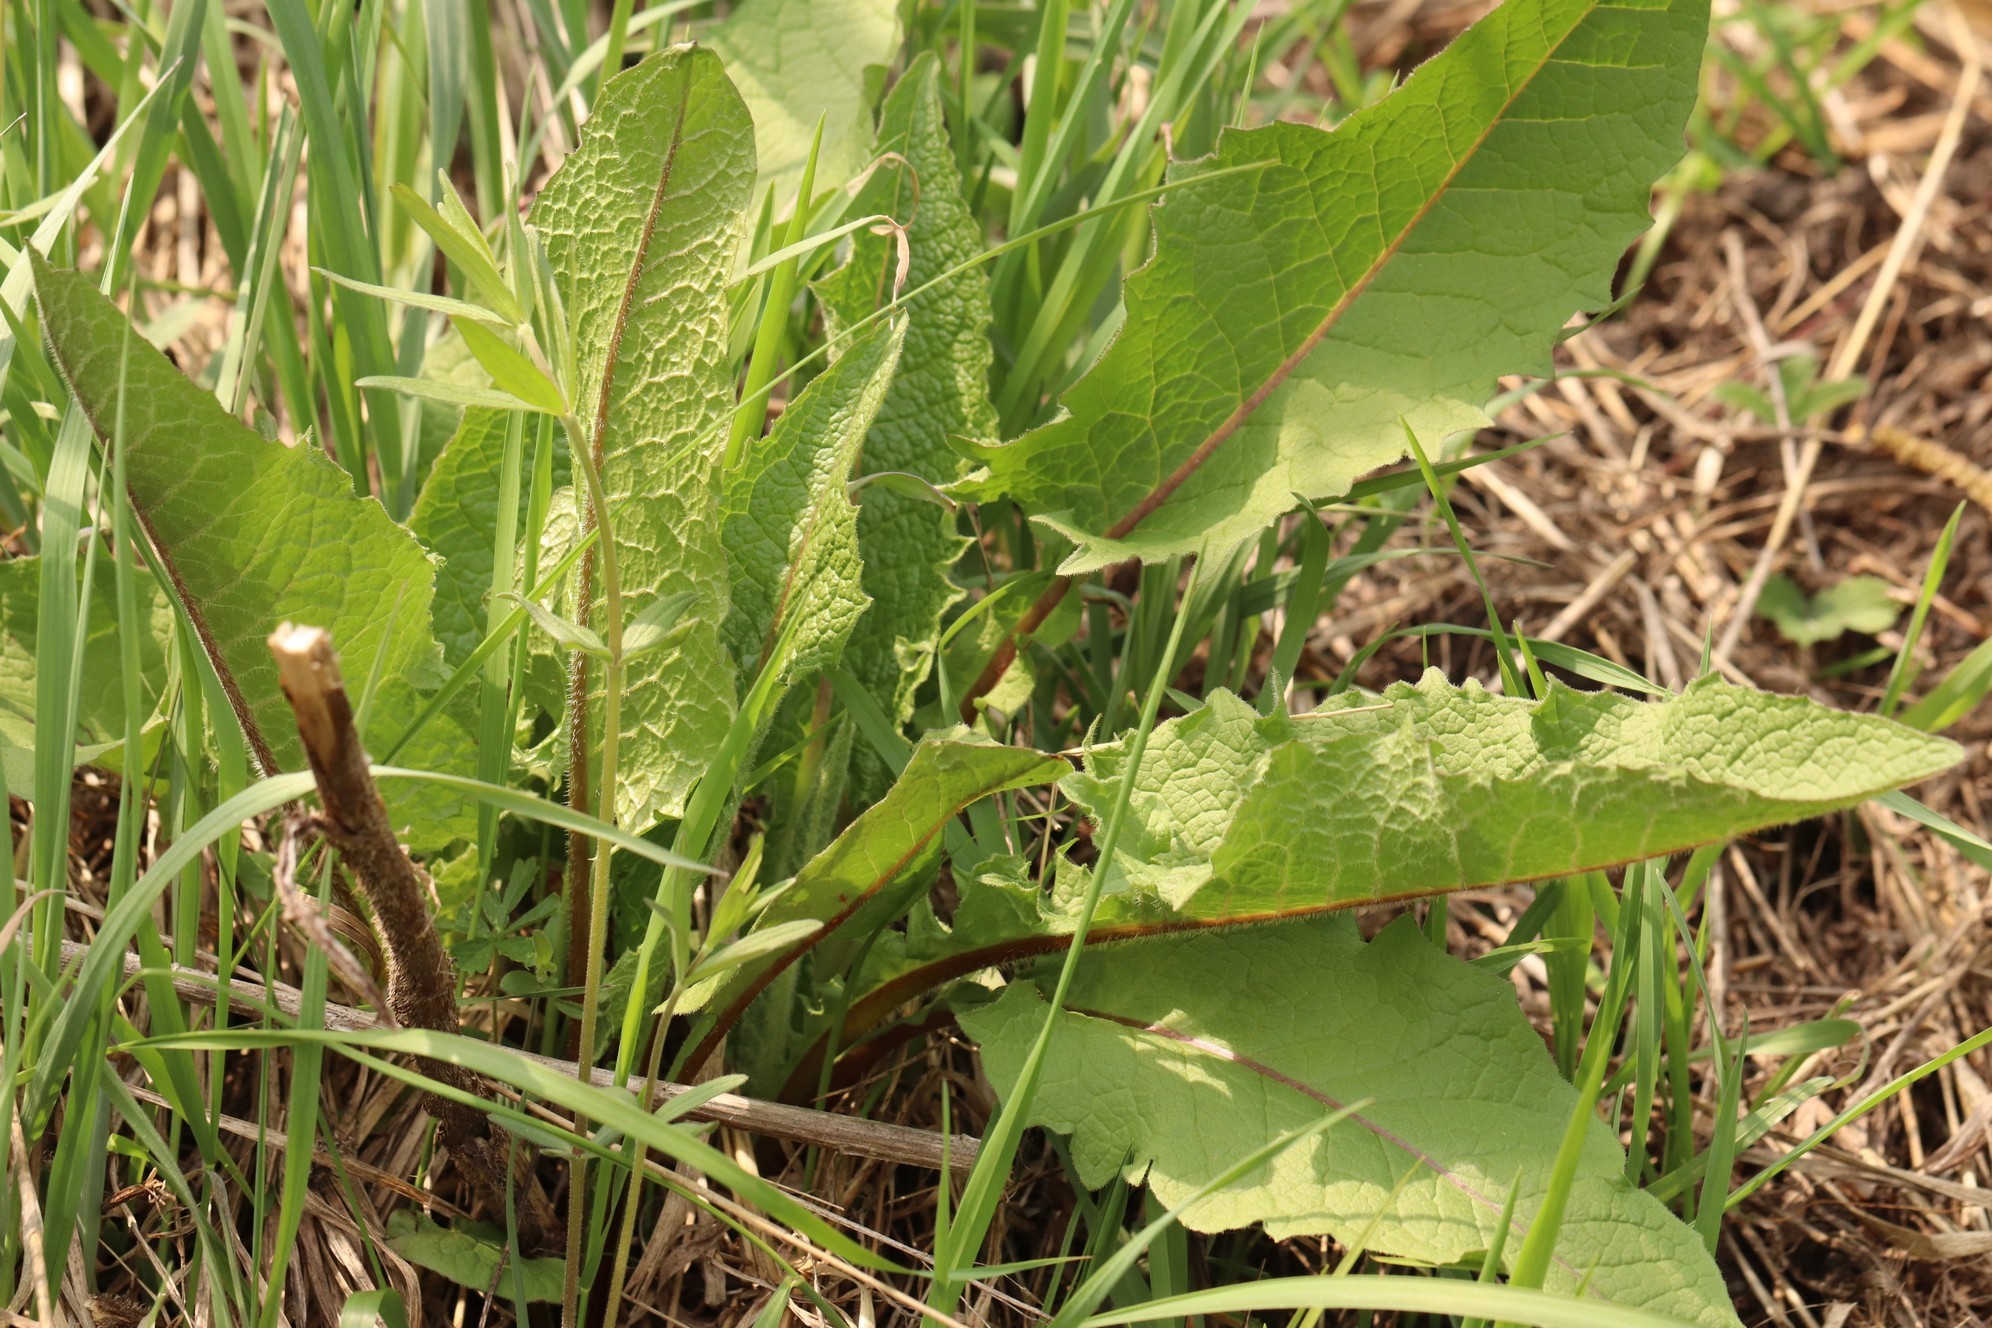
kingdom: Plantae
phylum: Tracheophyta
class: Magnoliopsida
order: Asterales
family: Asteraceae
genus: Crepis
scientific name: Crepis sibirica
